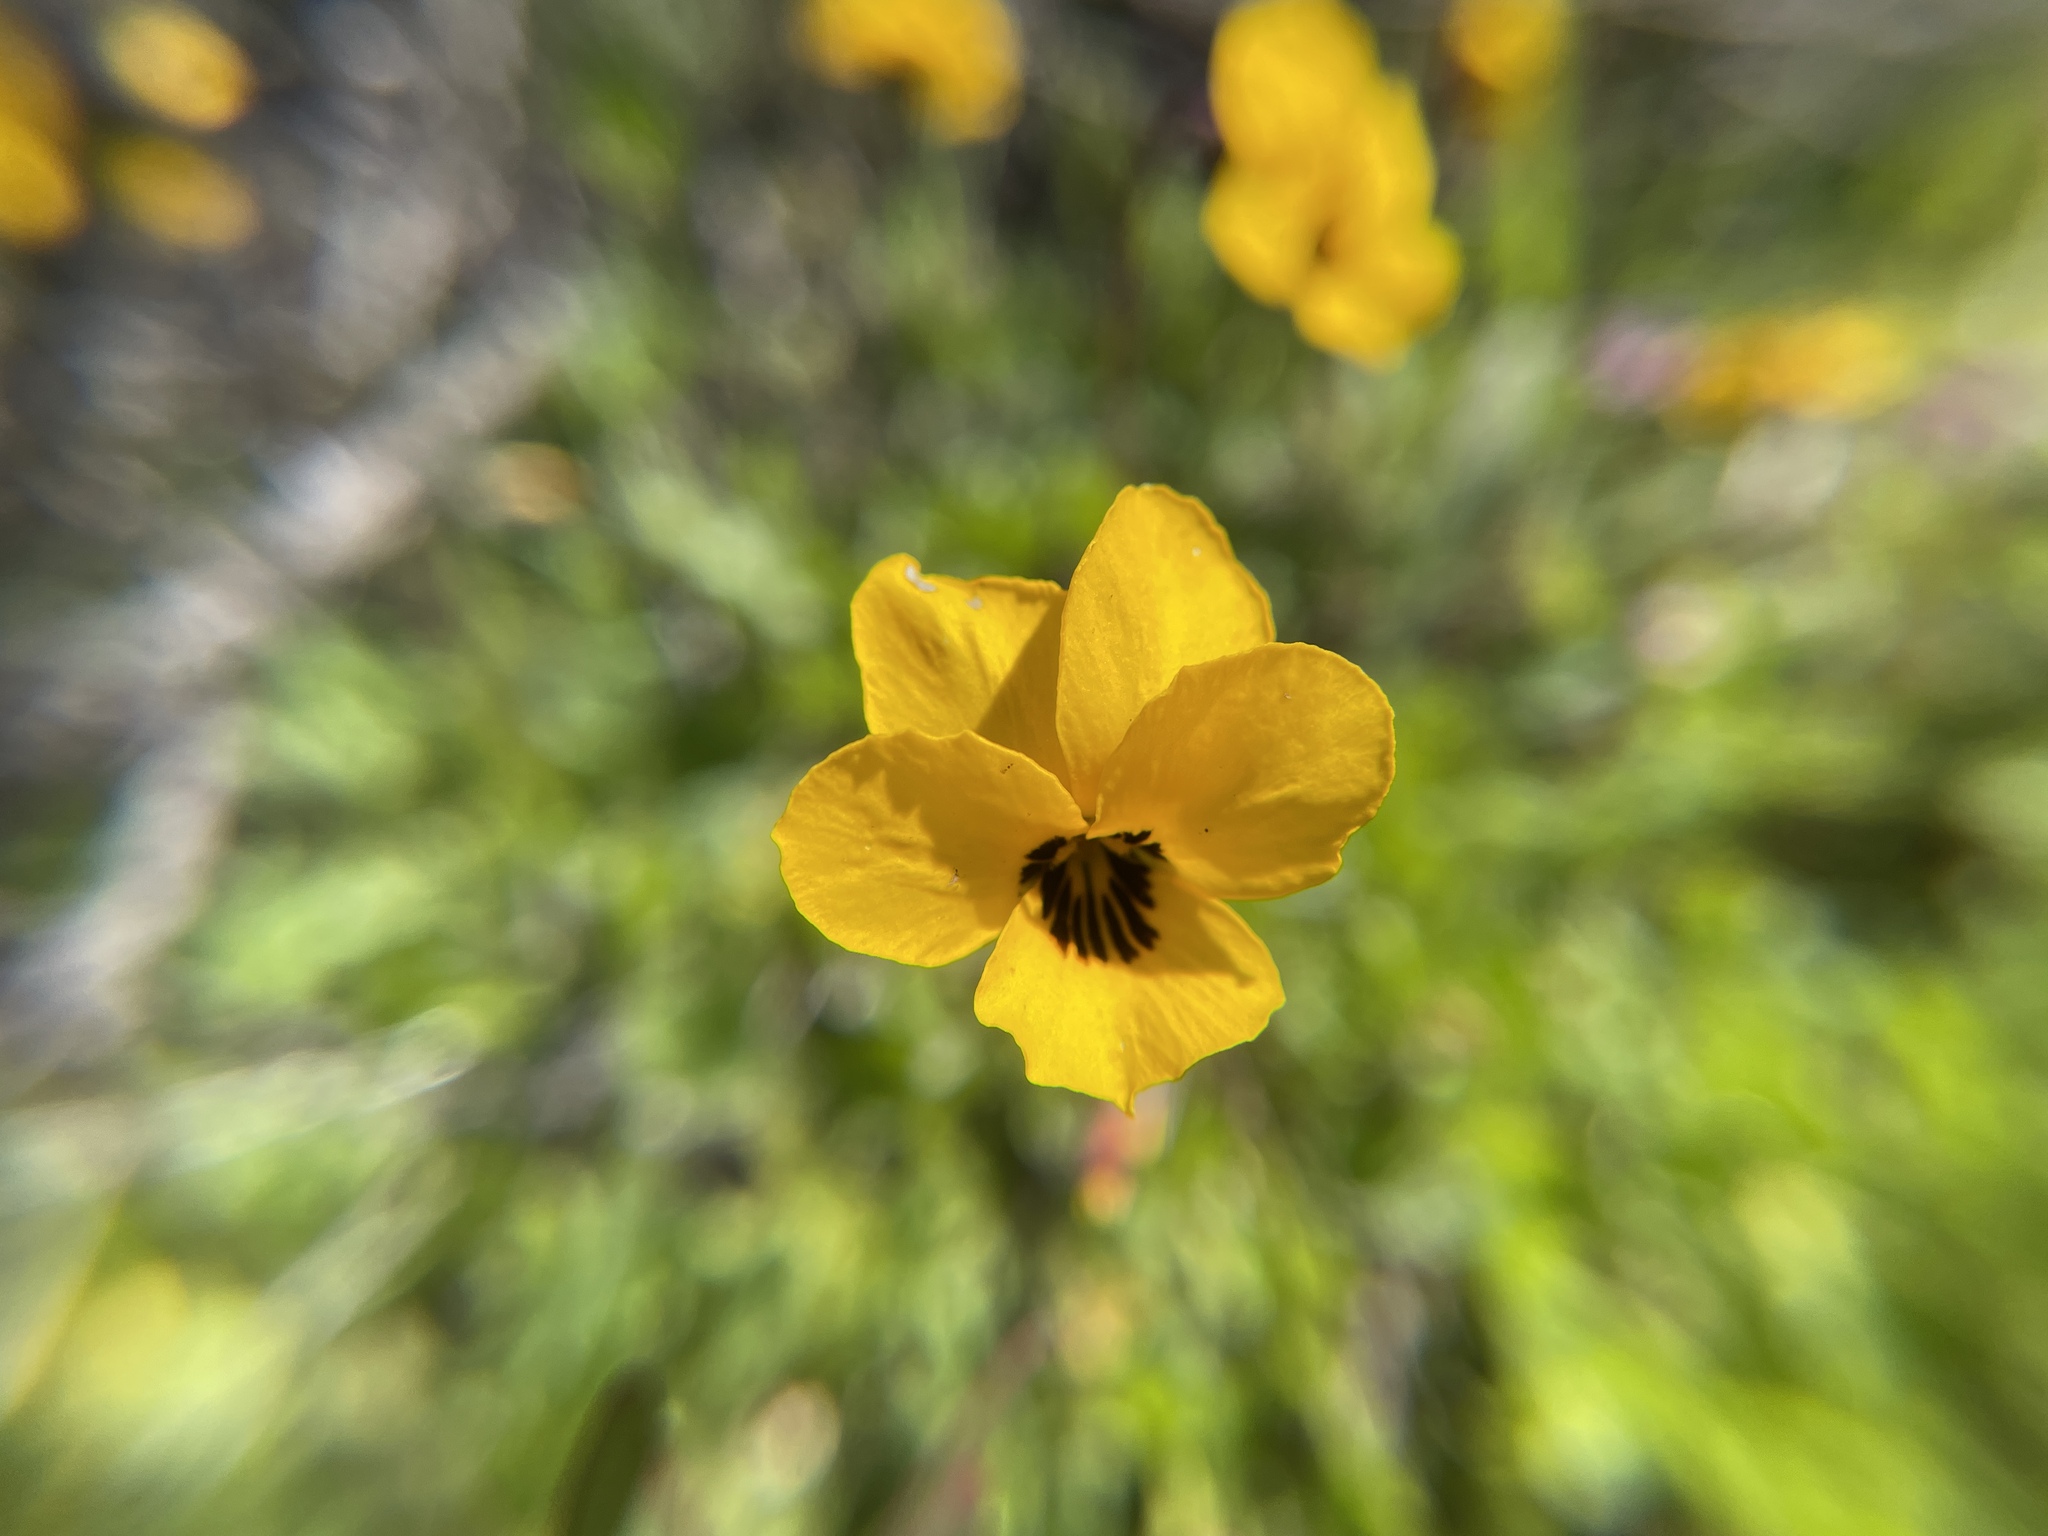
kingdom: Plantae
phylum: Tracheophyta
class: Magnoliopsida
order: Malpighiales
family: Violaceae
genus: Viola
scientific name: Viola pedunculata
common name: California golden violet
